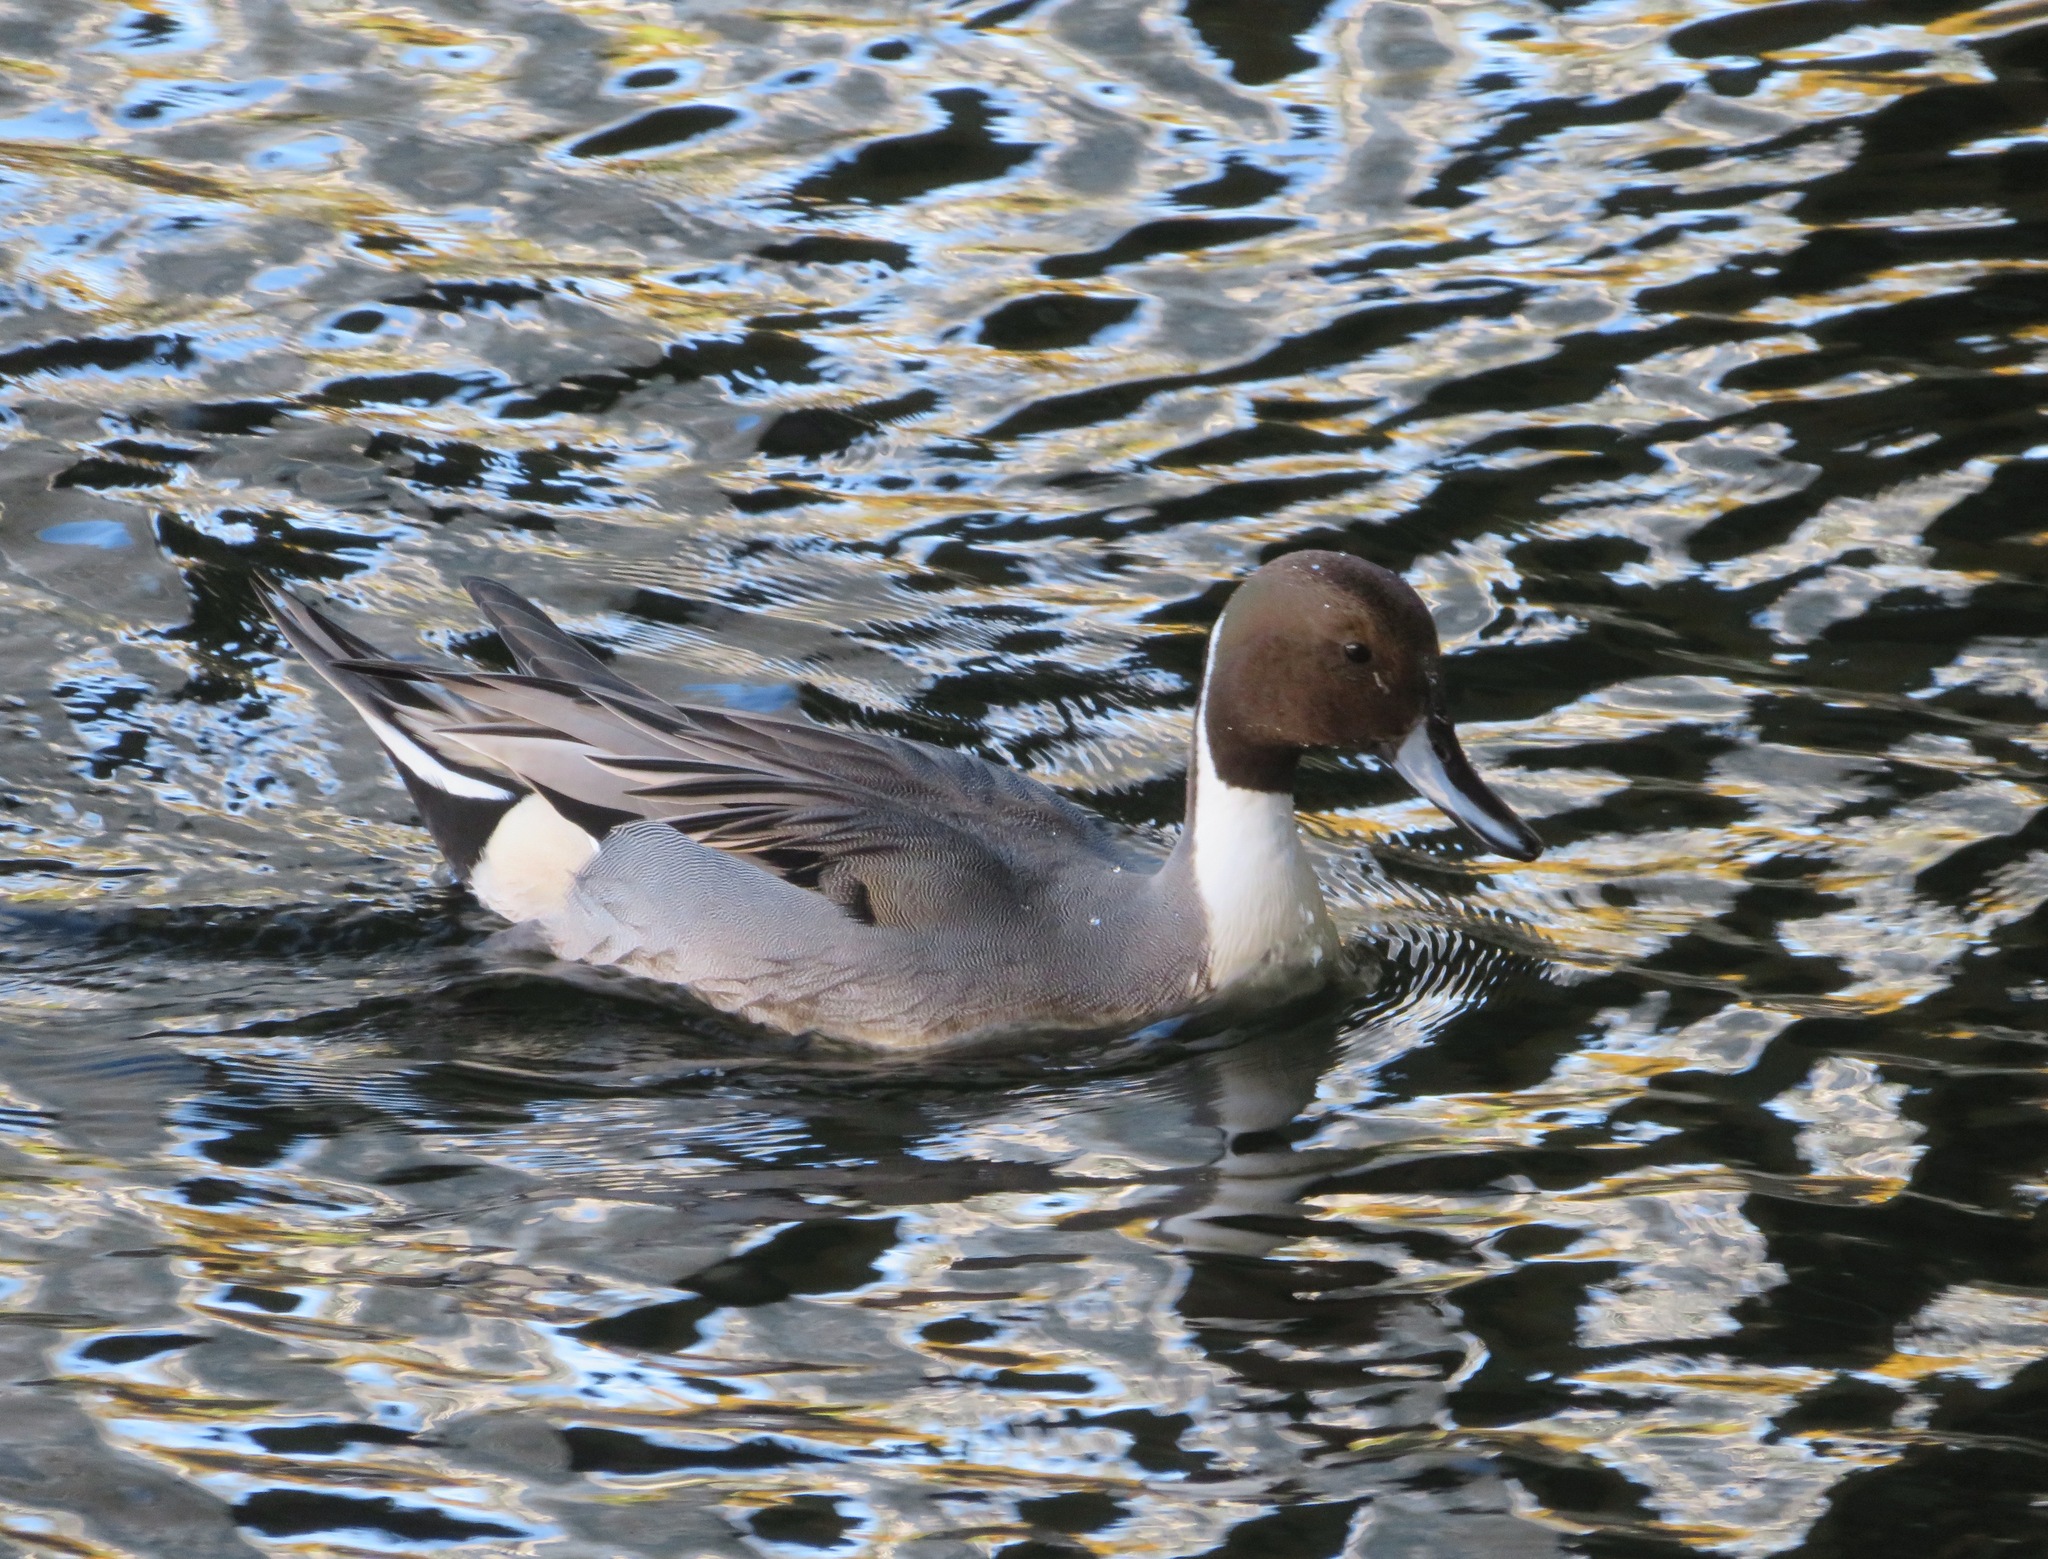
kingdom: Animalia
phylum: Chordata
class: Aves
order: Anseriformes
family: Anatidae
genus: Anas
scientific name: Anas acuta
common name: Northern pintail
